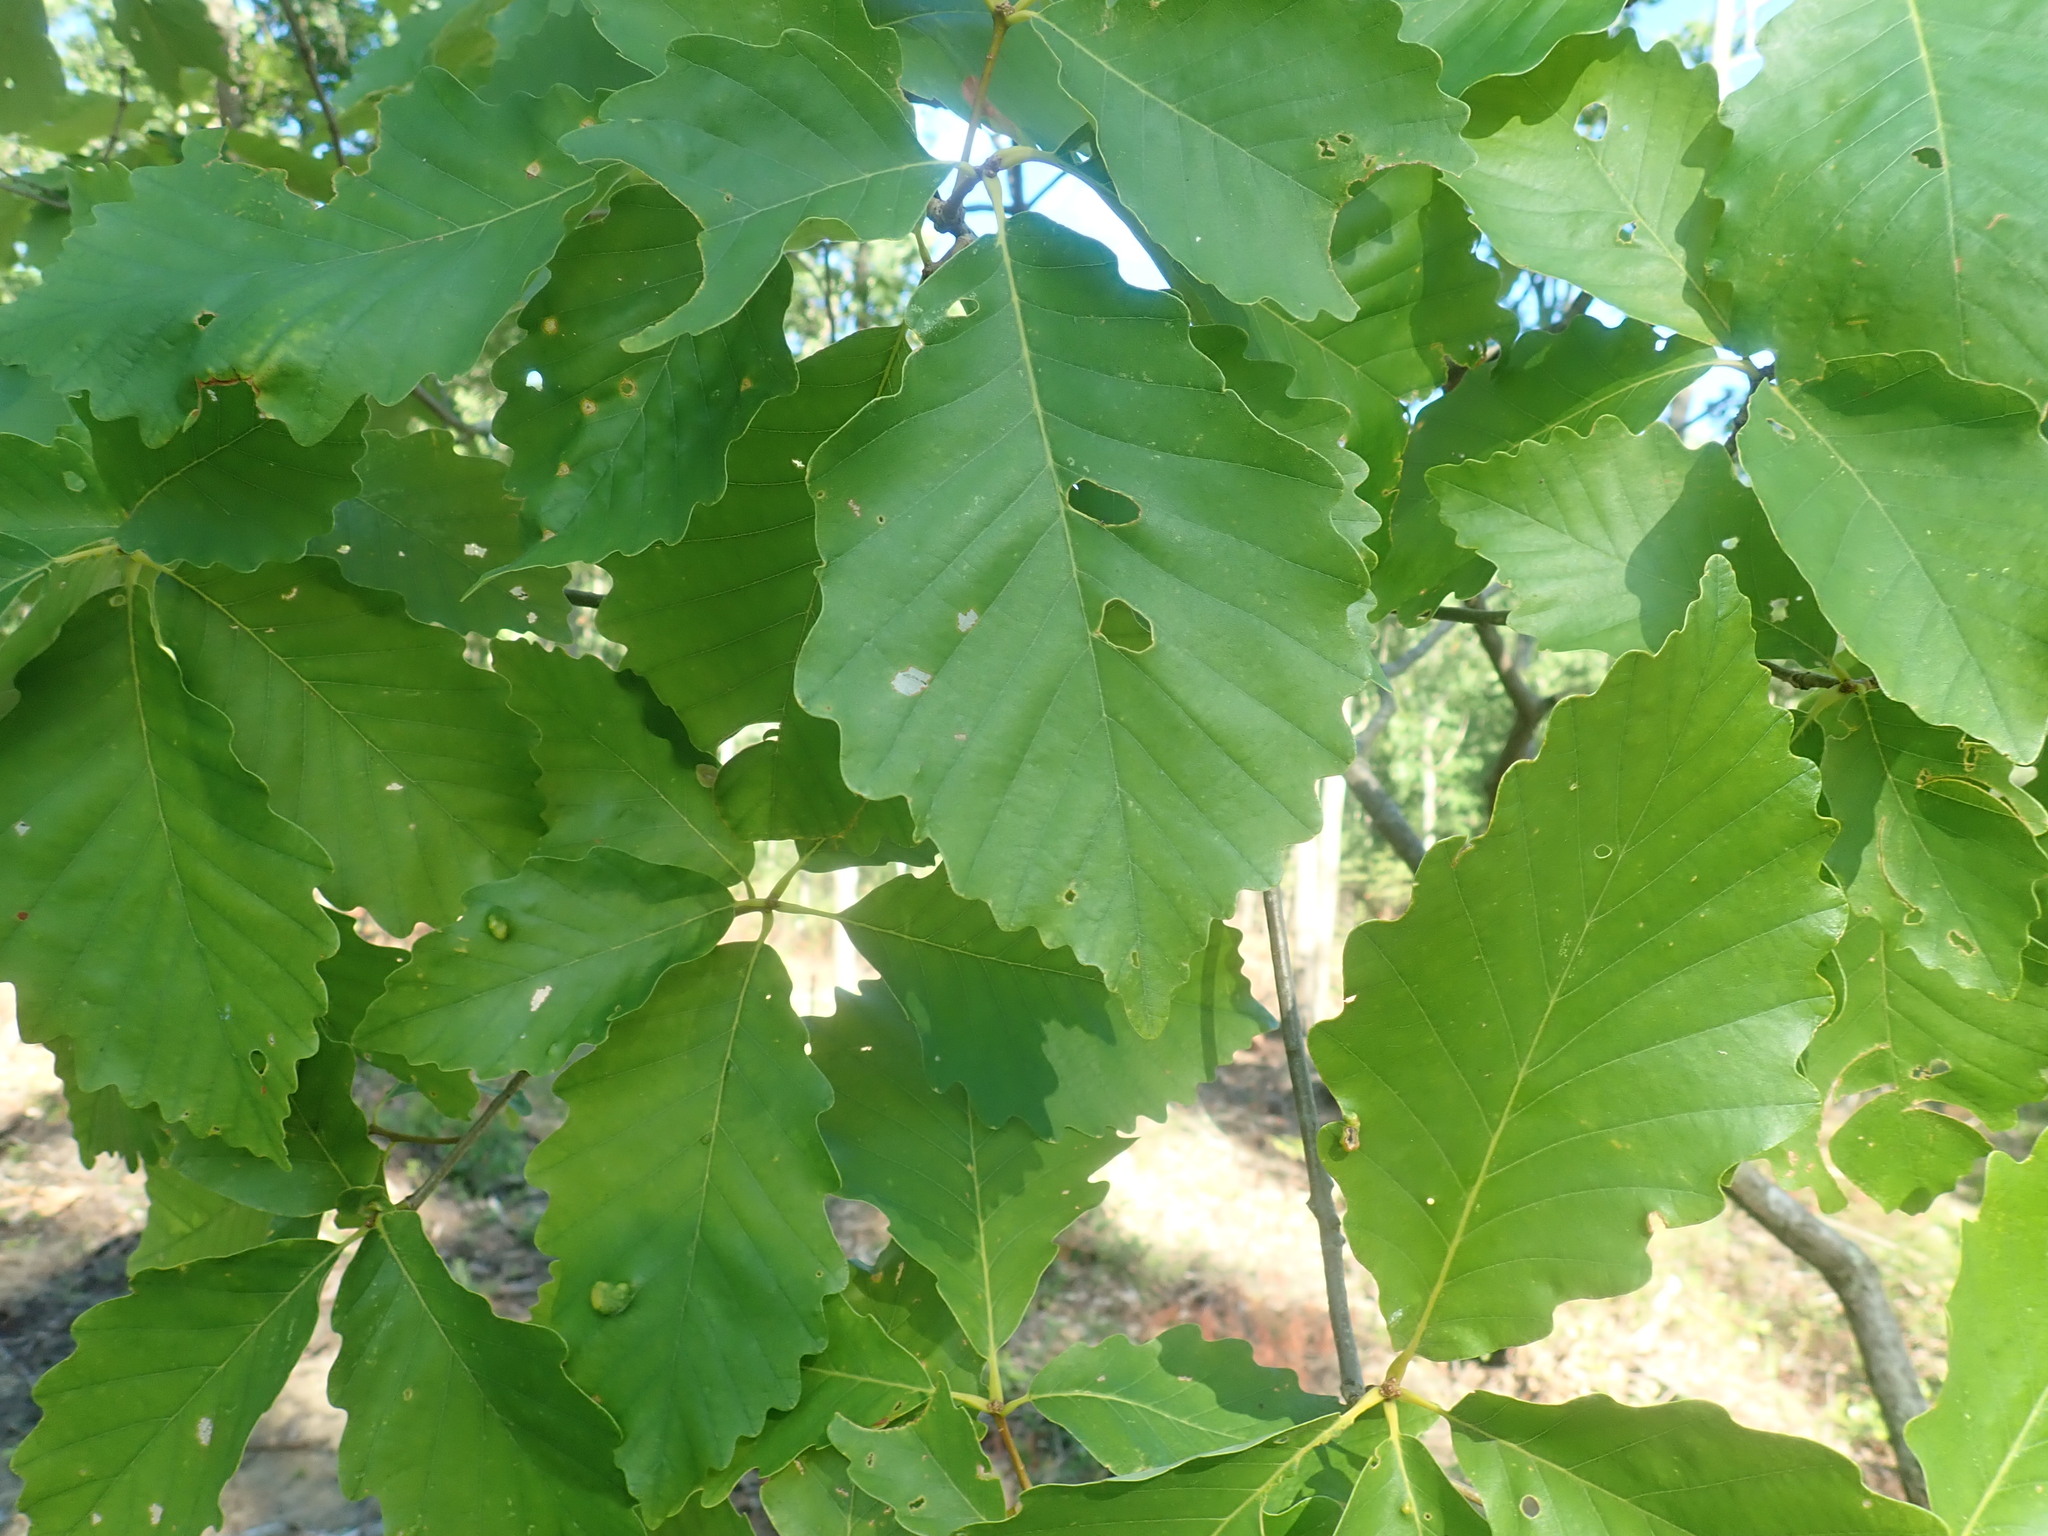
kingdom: Plantae
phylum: Tracheophyta
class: Magnoliopsida
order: Fagales
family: Fagaceae
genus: Quercus
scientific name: Quercus montana
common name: Chestnut oak
